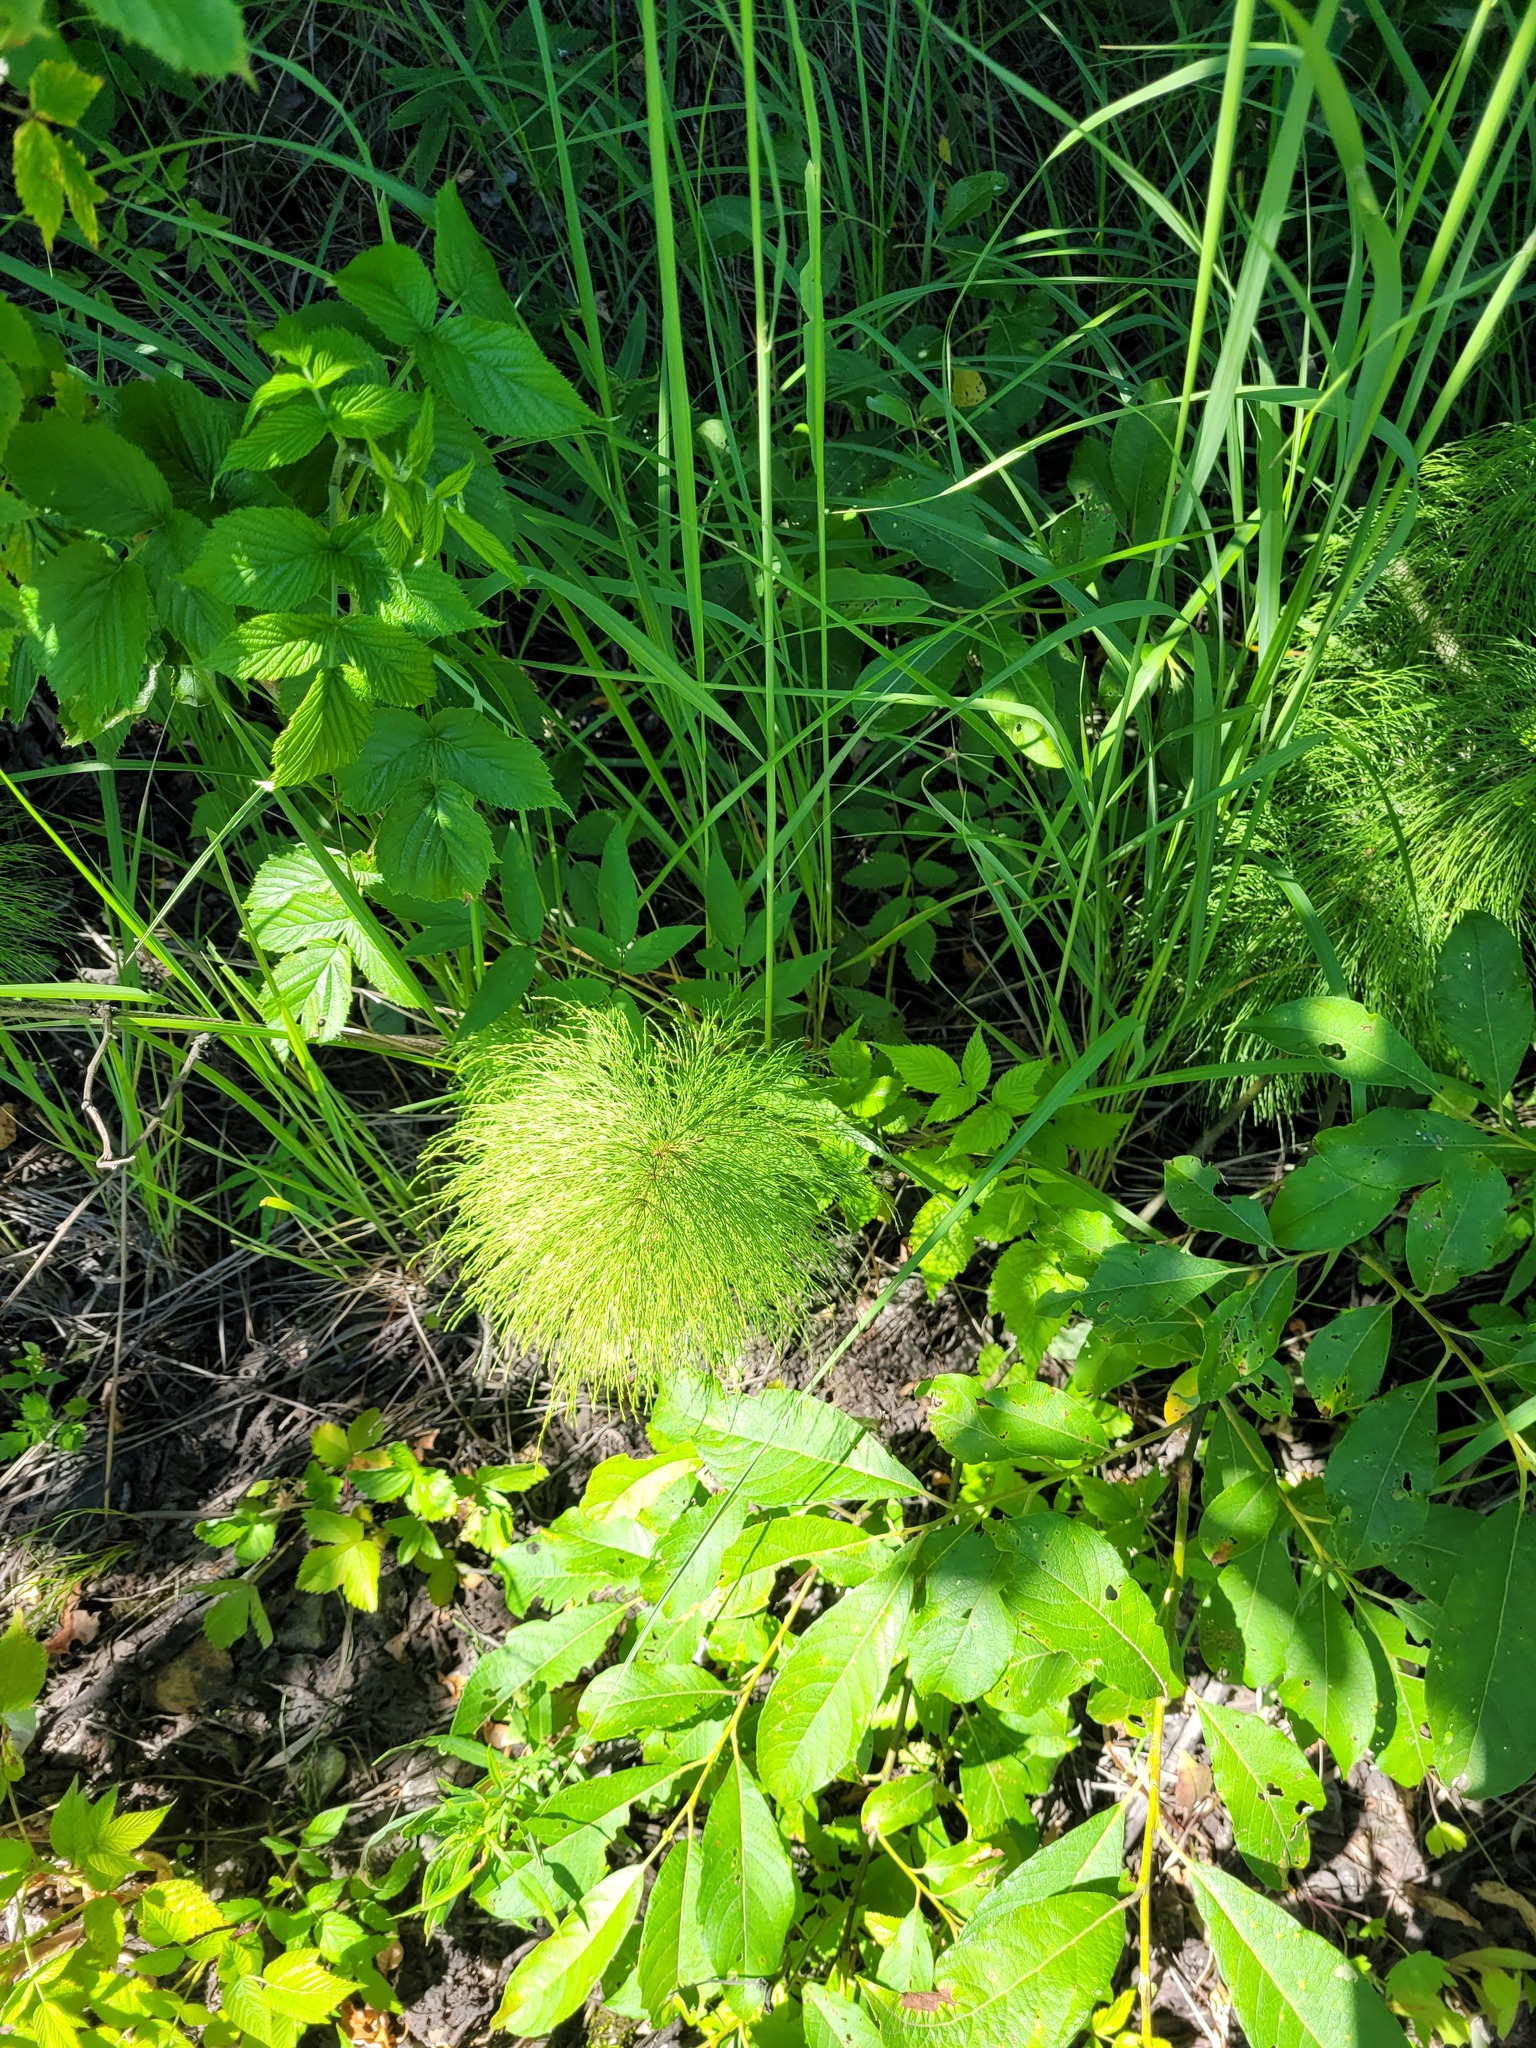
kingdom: Plantae
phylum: Tracheophyta
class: Polypodiopsida
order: Equisetales
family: Equisetaceae
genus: Equisetum
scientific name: Equisetum sylvaticum
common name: Wood horsetail
